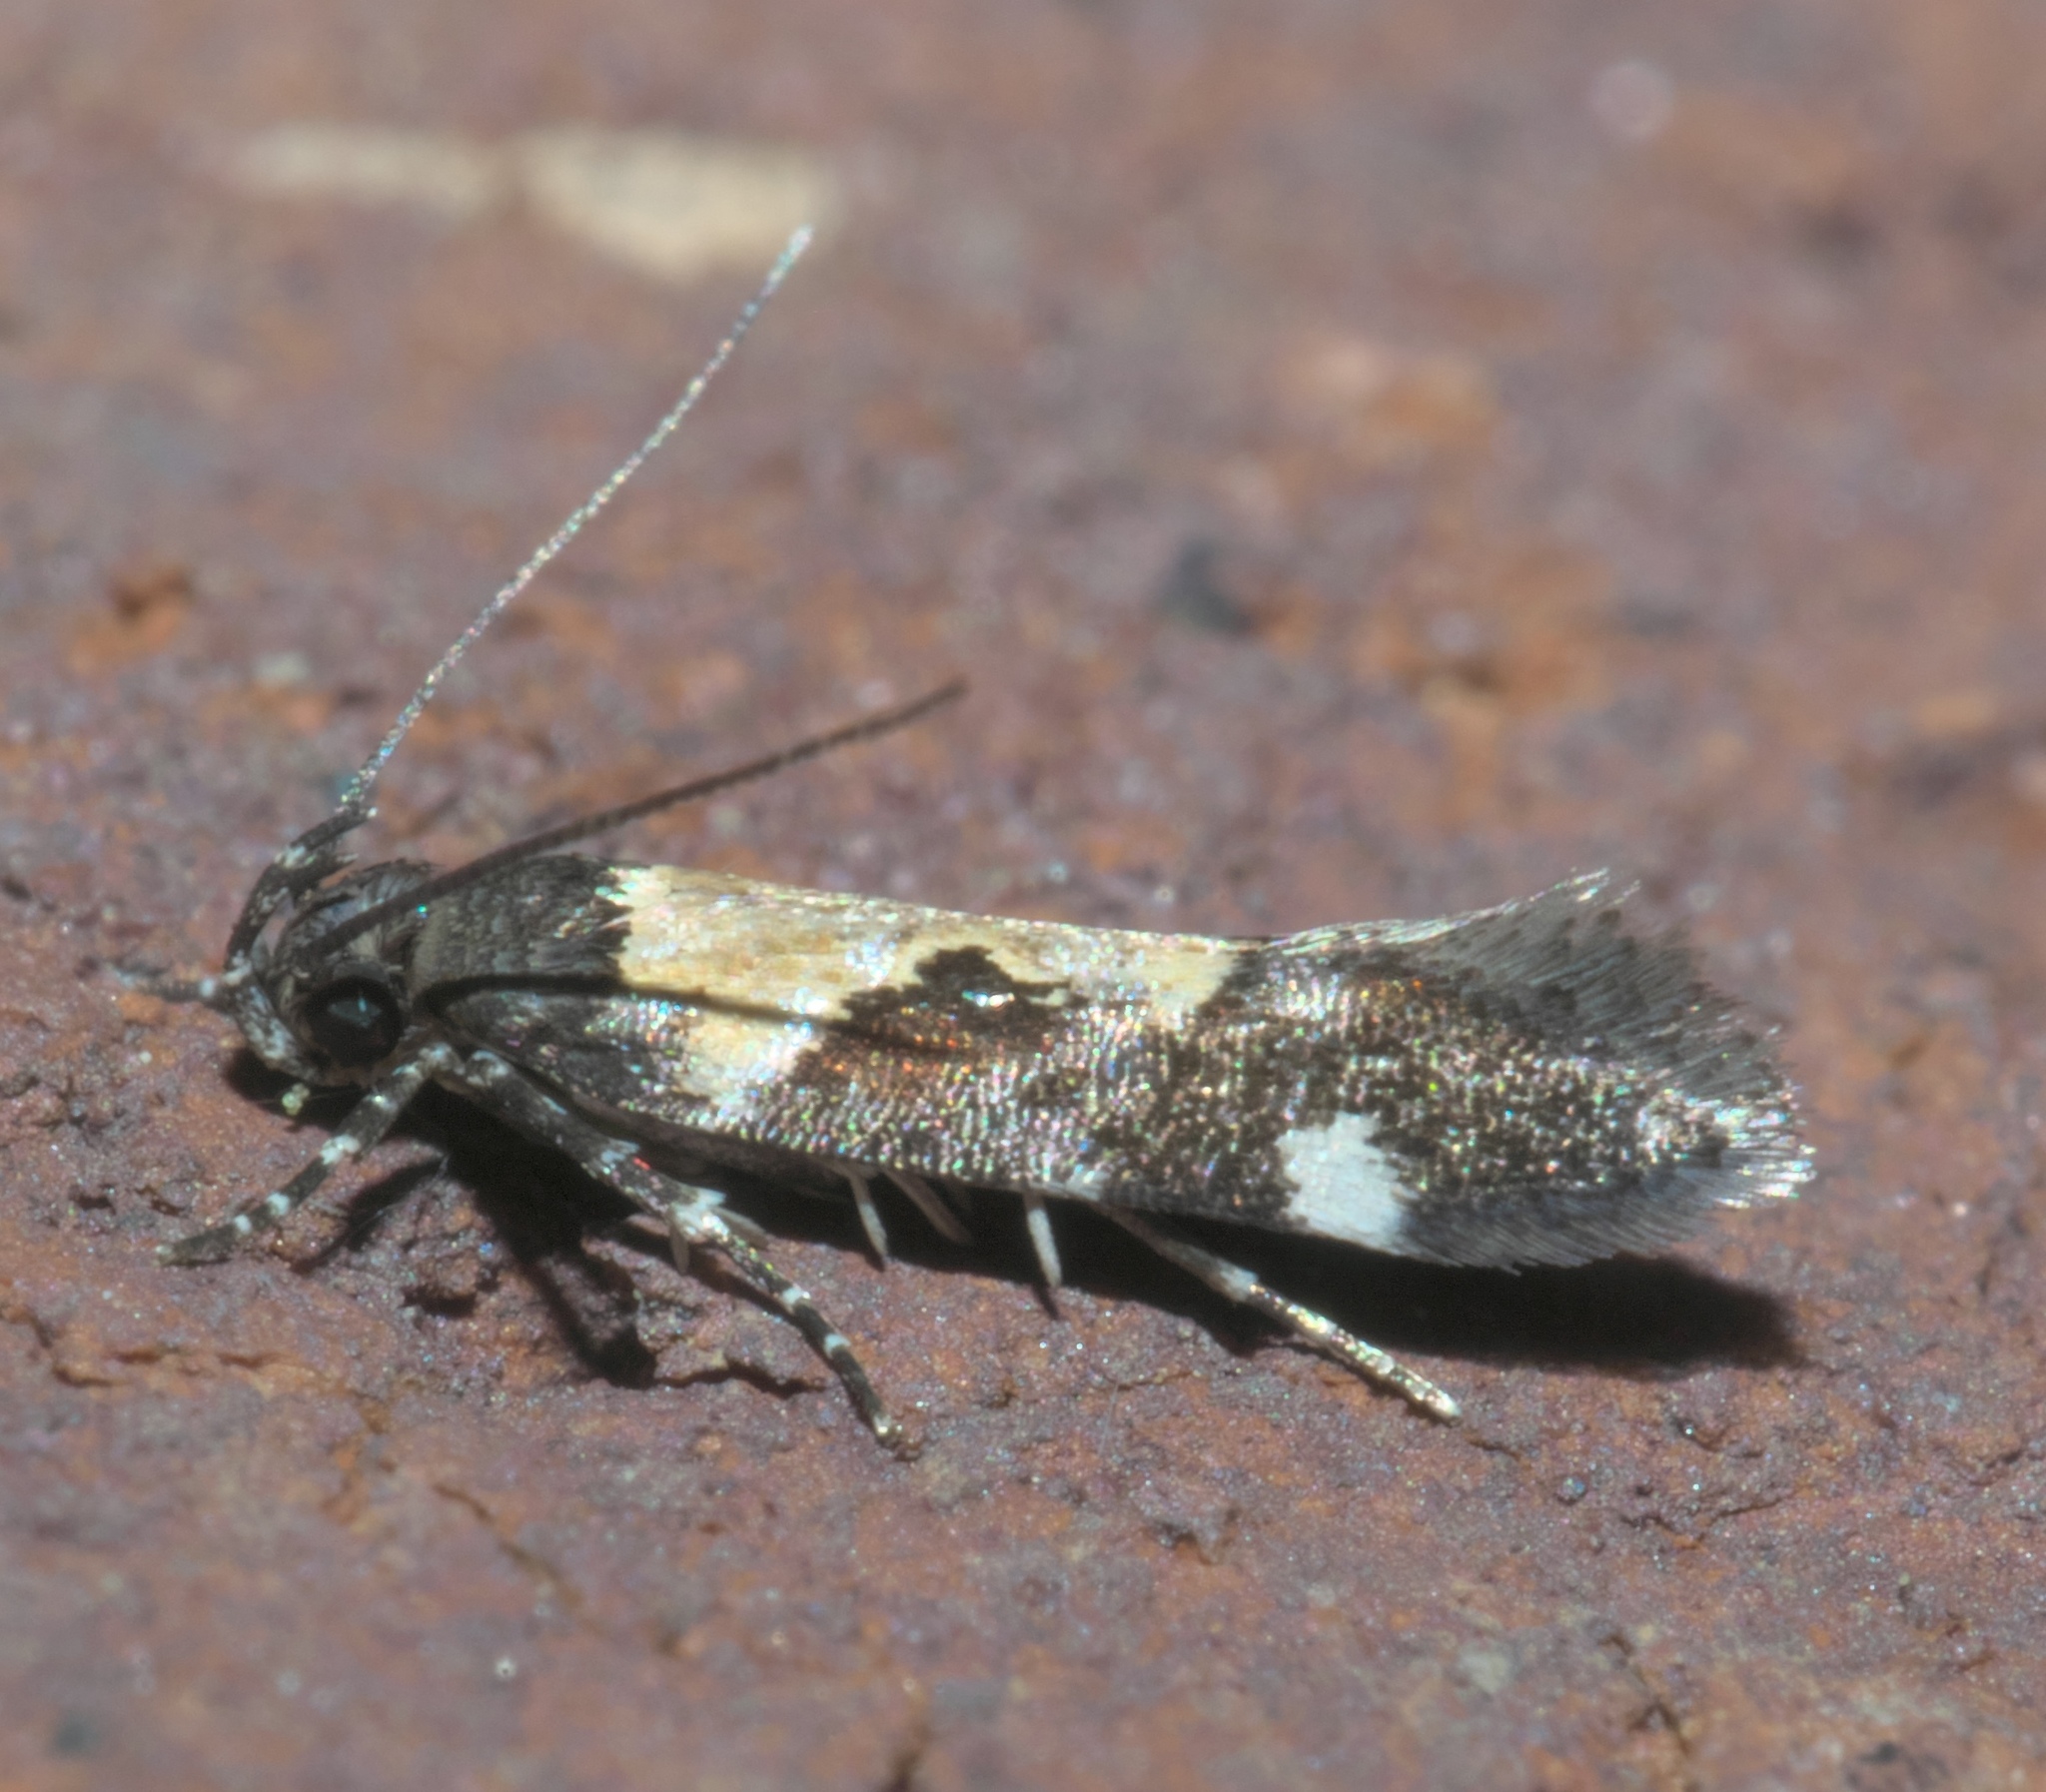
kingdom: Animalia
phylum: Arthropoda
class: Insecta
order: Lepidoptera
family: Gelechiidae
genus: Stegasta
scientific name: Stegasta bosqueella
